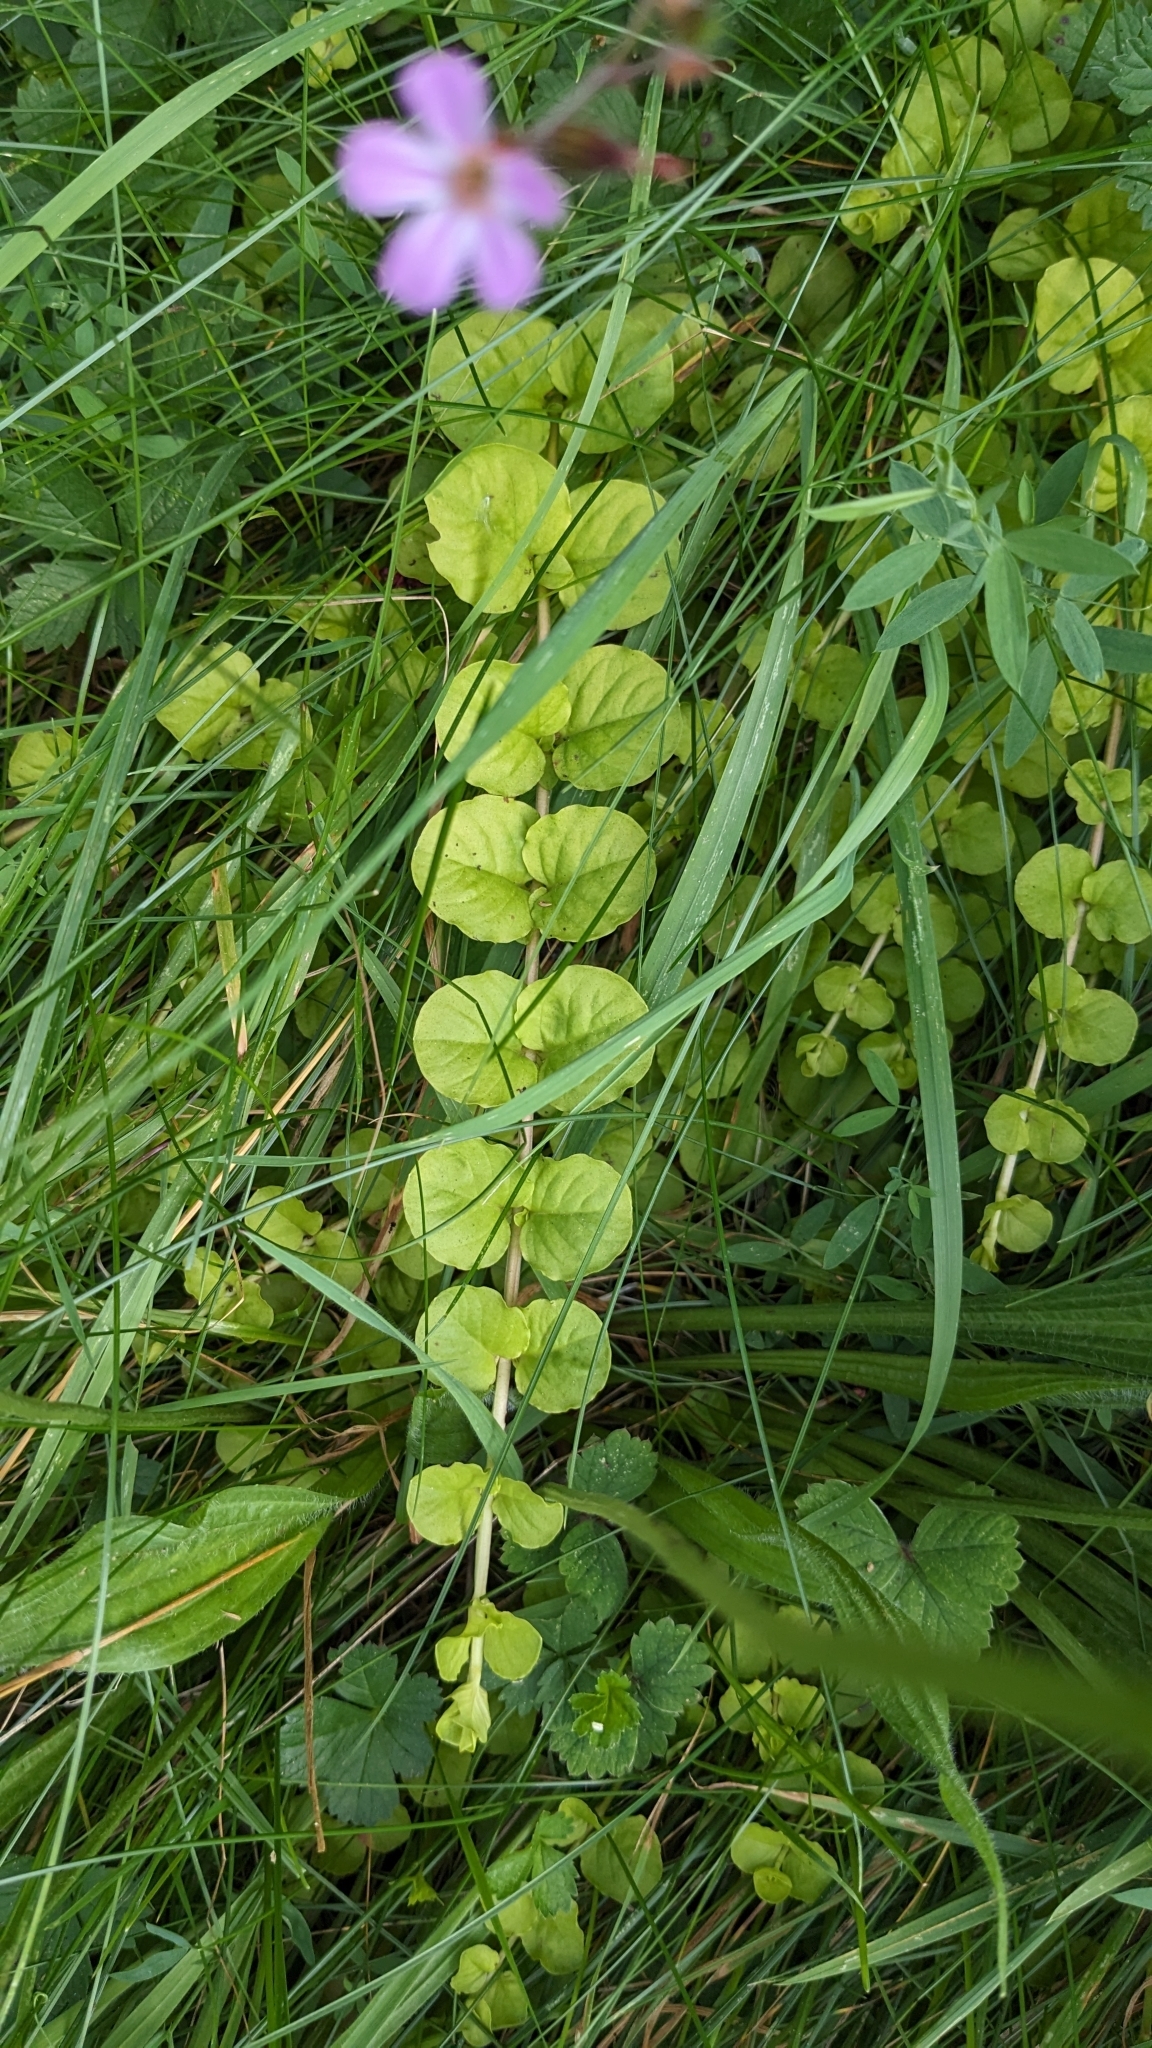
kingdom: Plantae
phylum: Tracheophyta
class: Magnoliopsida
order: Ericales
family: Primulaceae
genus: Lysimachia
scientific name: Lysimachia nummularia
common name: Moneywort
